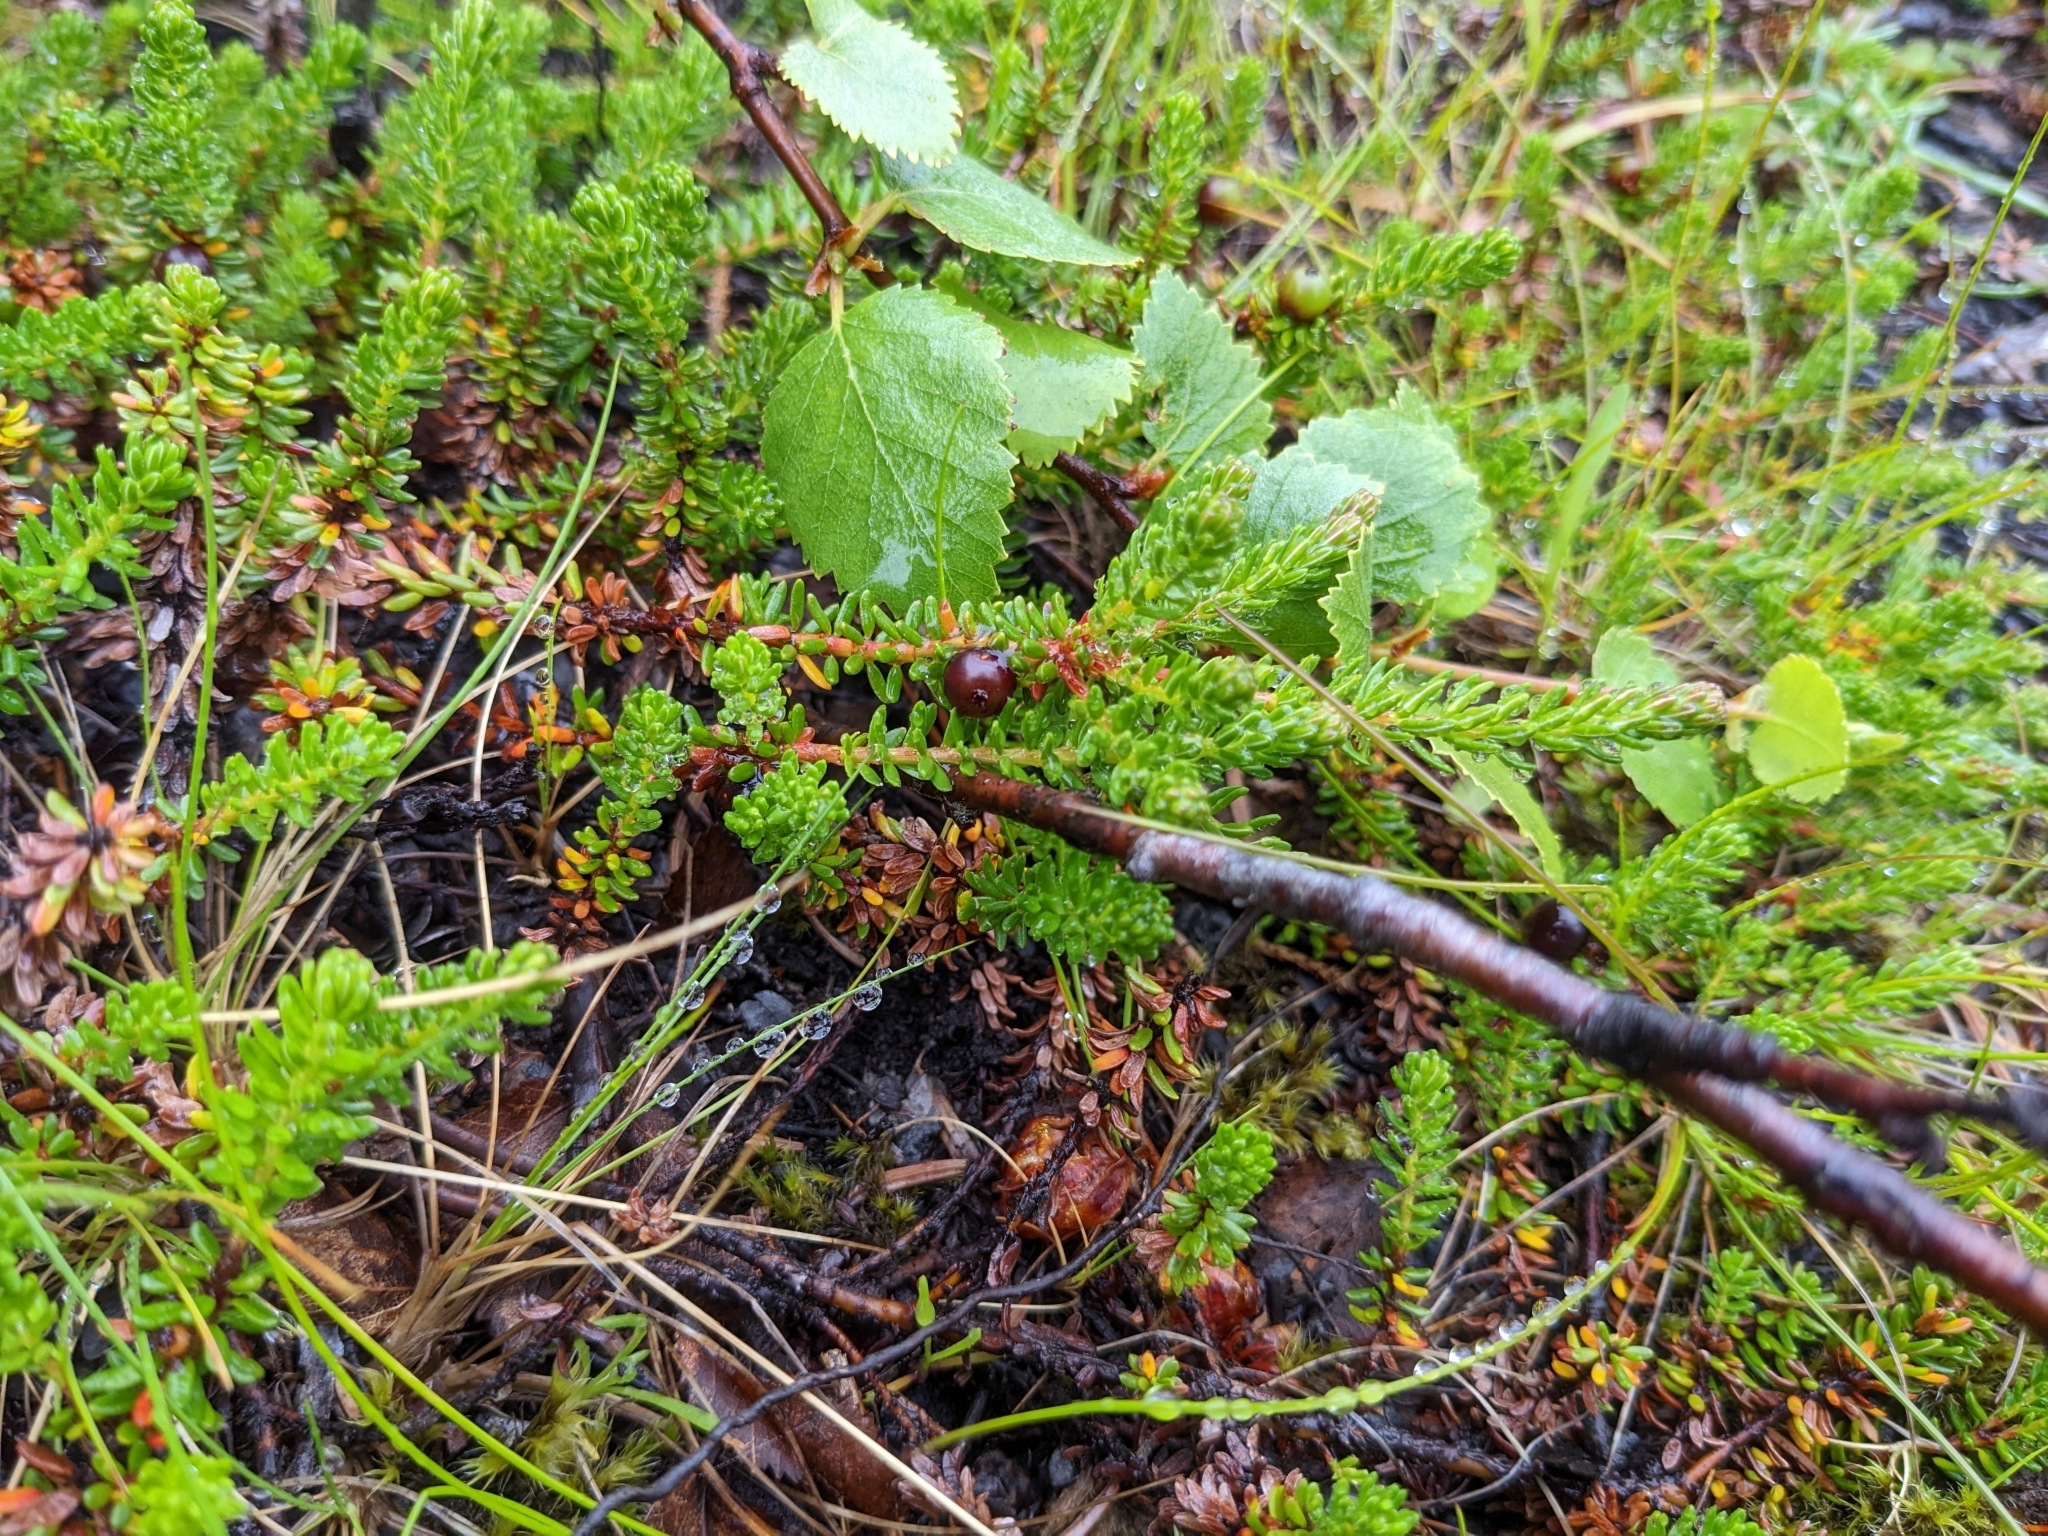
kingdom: Plantae
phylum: Tracheophyta
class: Magnoliopsida
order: Ericales
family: Ericaceae
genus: Empetrum
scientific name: Empetrum nigrum
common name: Black crowberry
